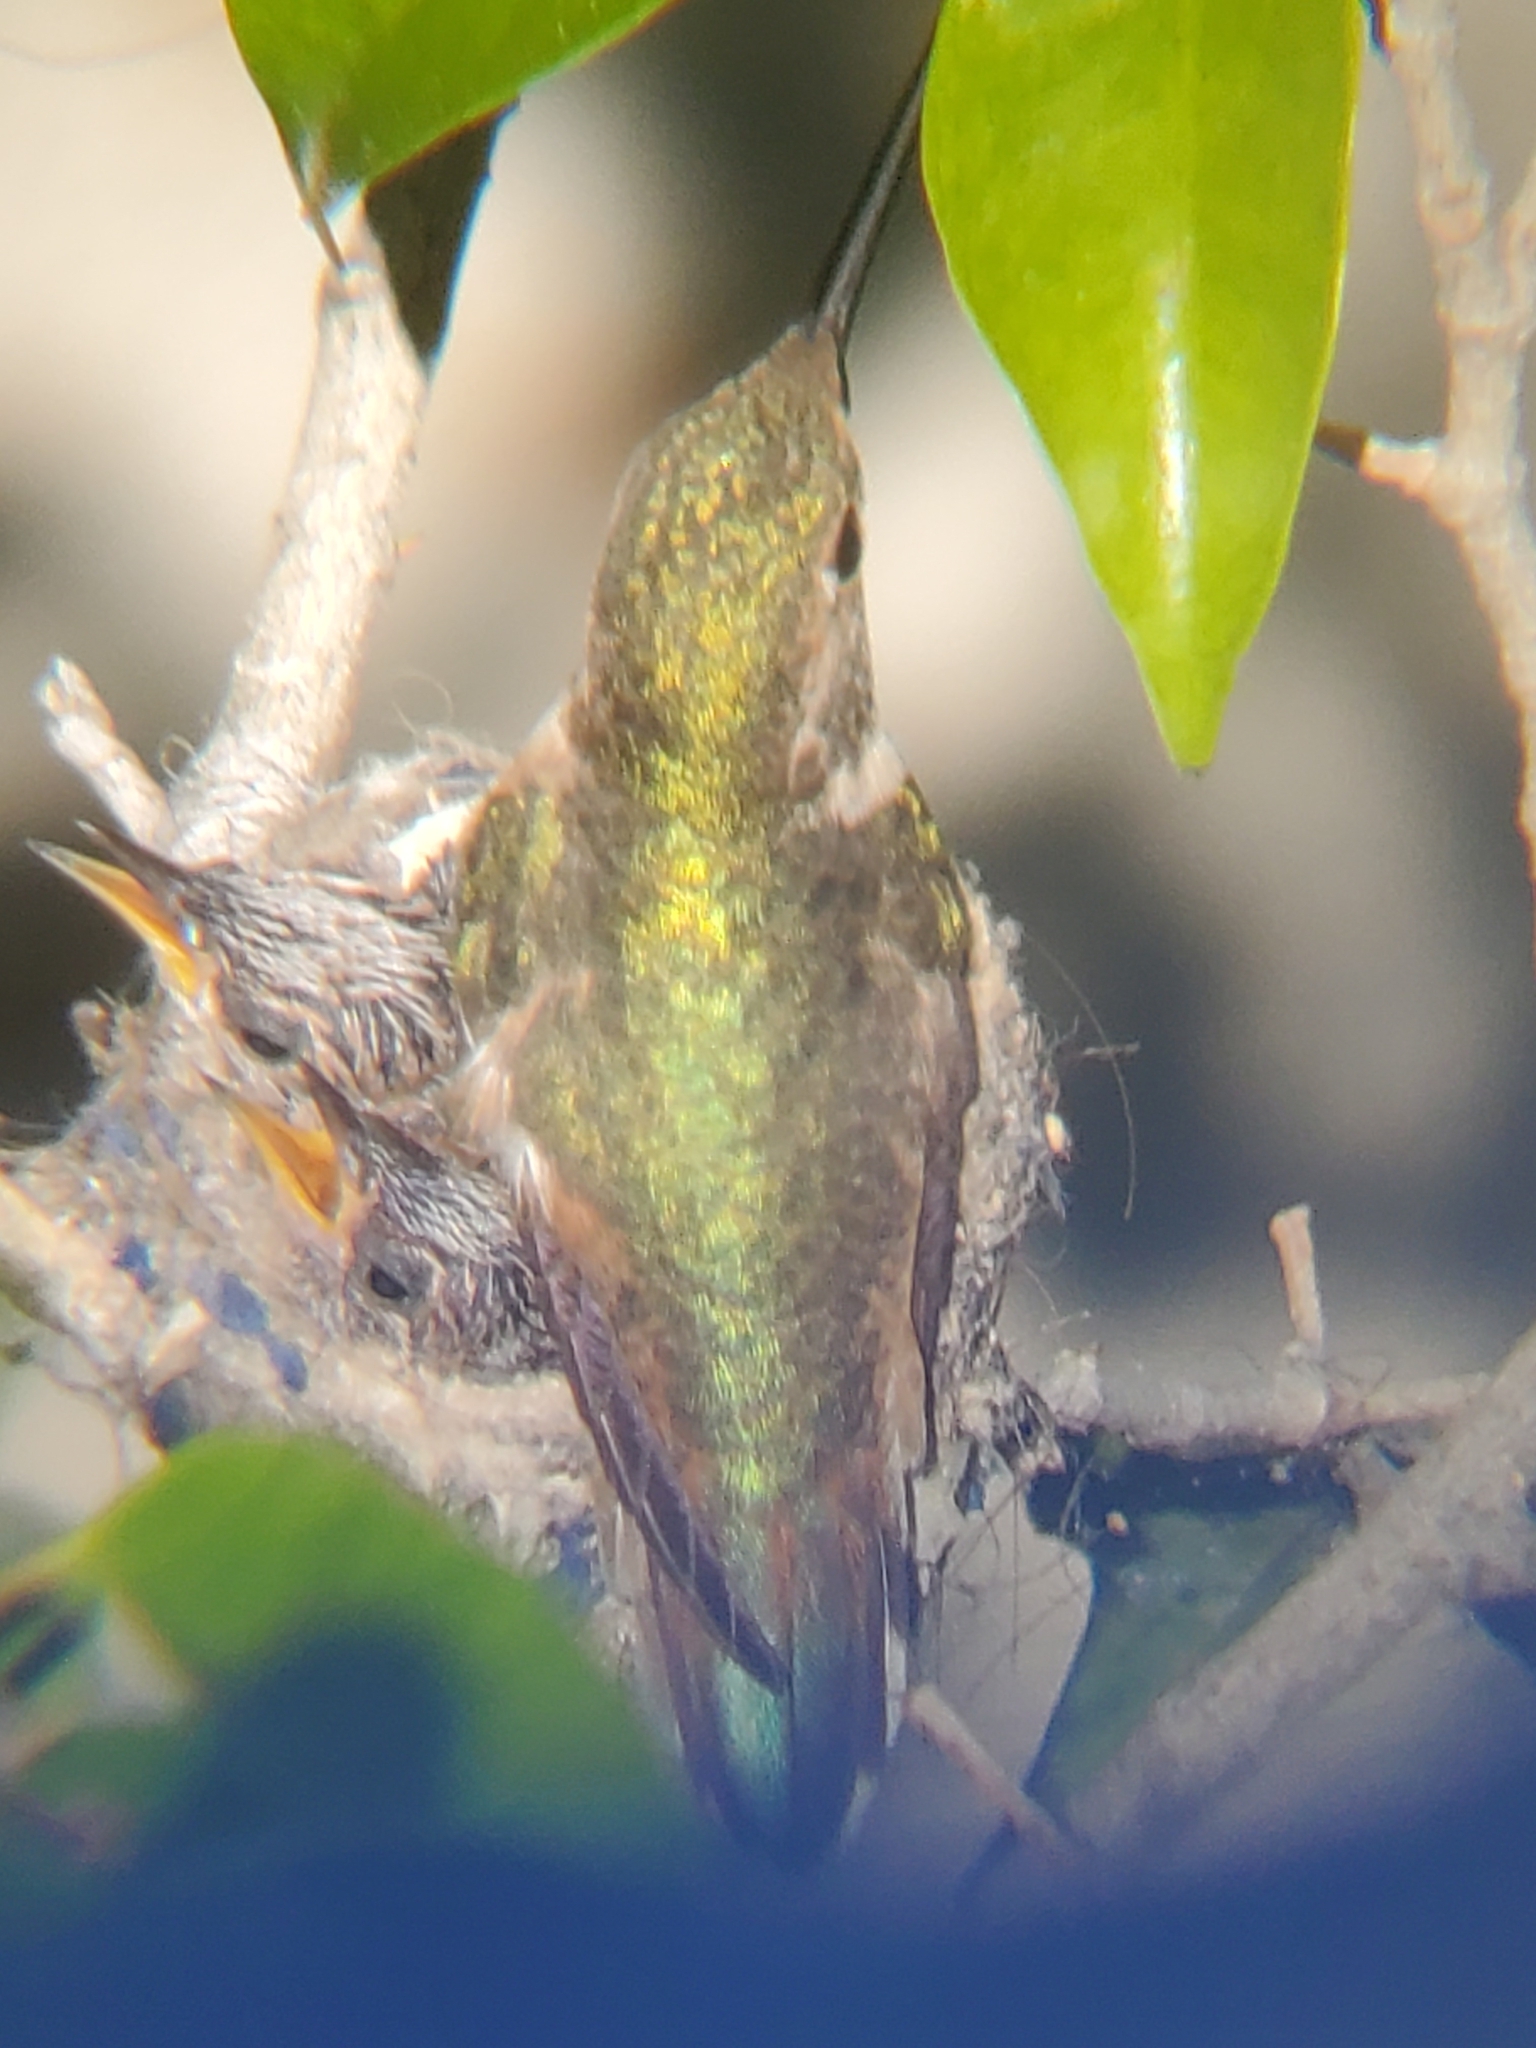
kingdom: Animalia
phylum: Chordata
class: Aves
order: Apodiformes
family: Trochilidae
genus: Selasphorus
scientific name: Selasphorus sasin
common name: Allen's hummingbird
